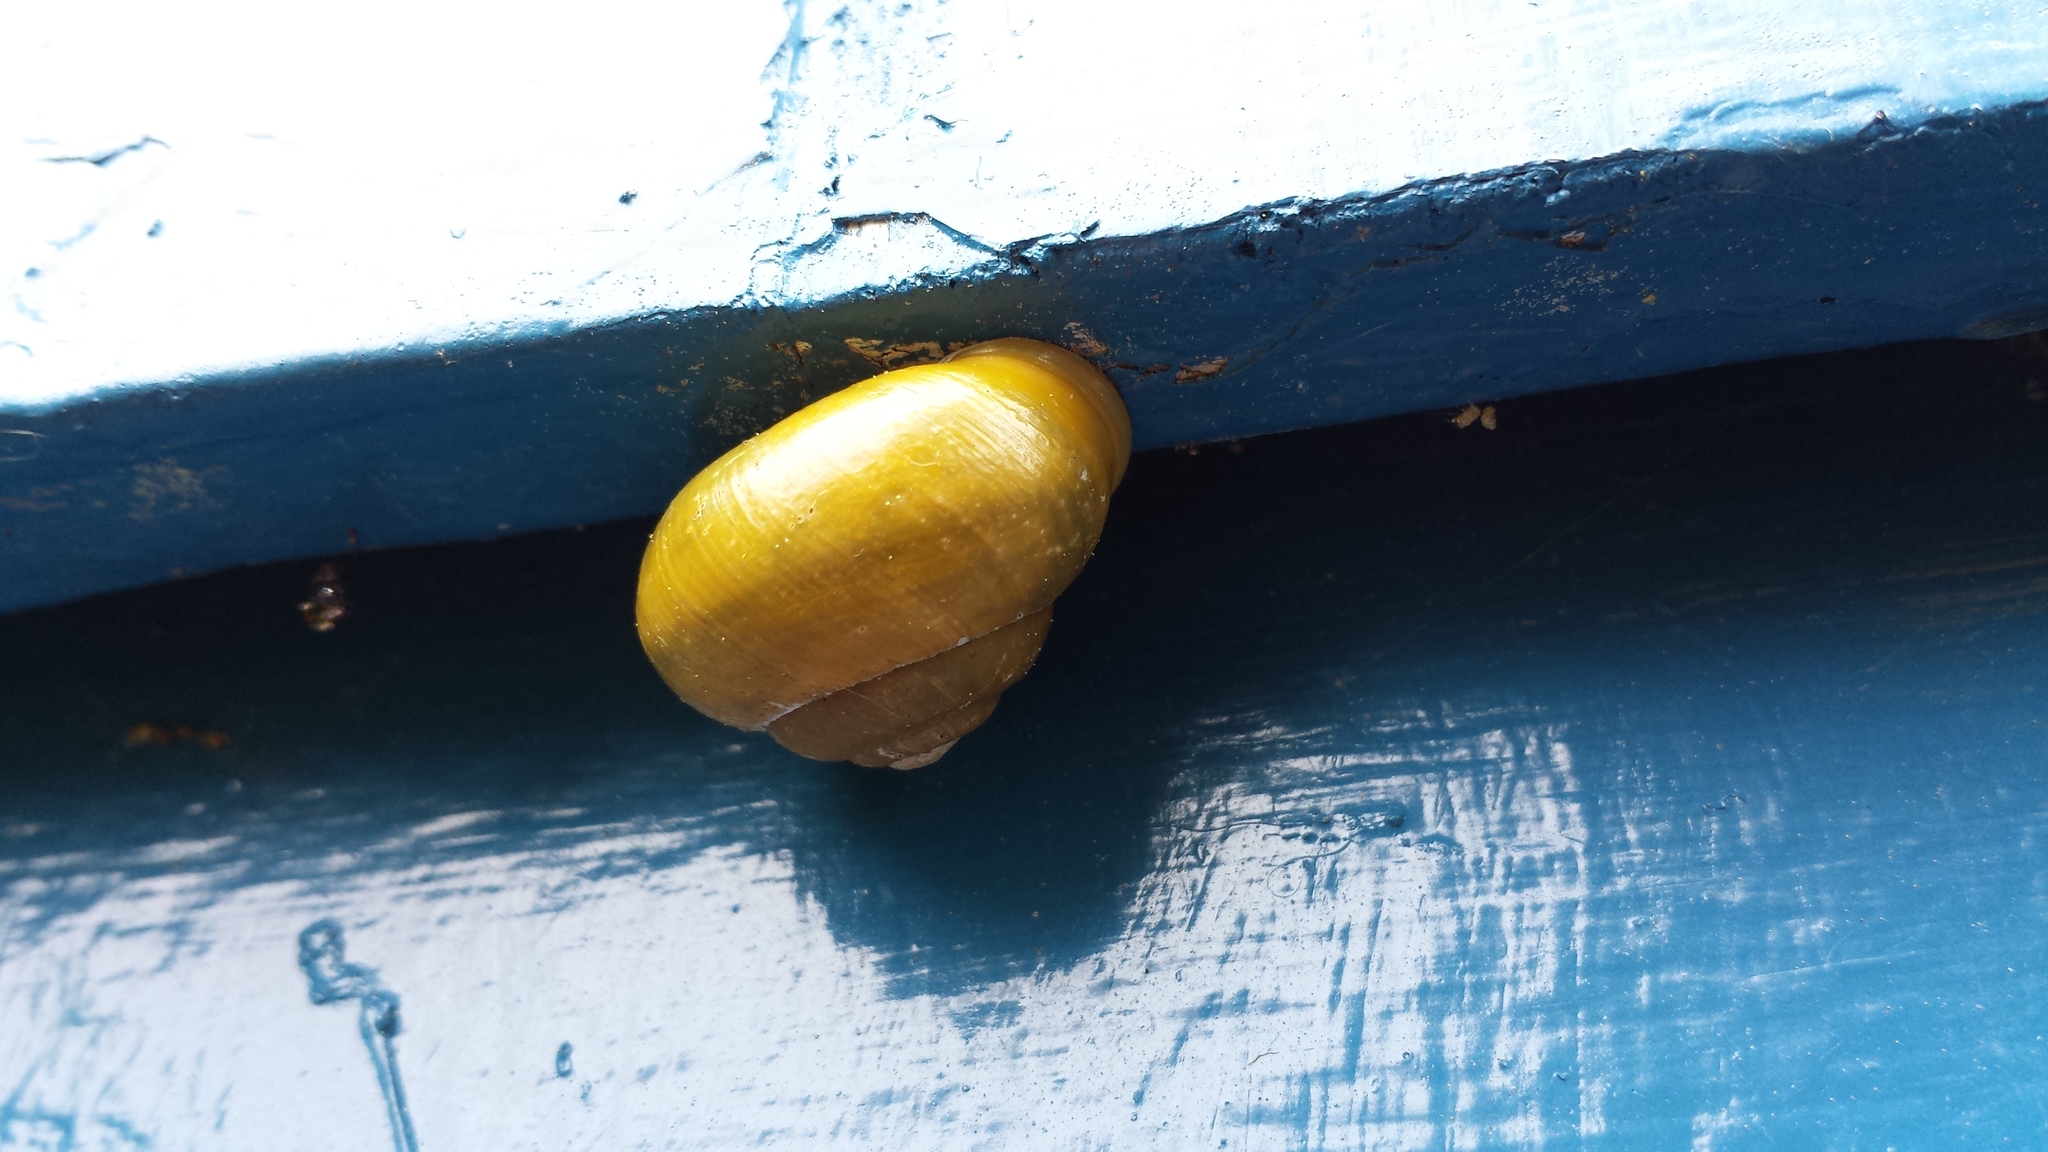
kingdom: Animalia
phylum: Mollusca
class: Gastropoda
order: Stylommatophora
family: Helicidae
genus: Cepaea
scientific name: Cepaea hortensis
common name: White-lip gardensnail
